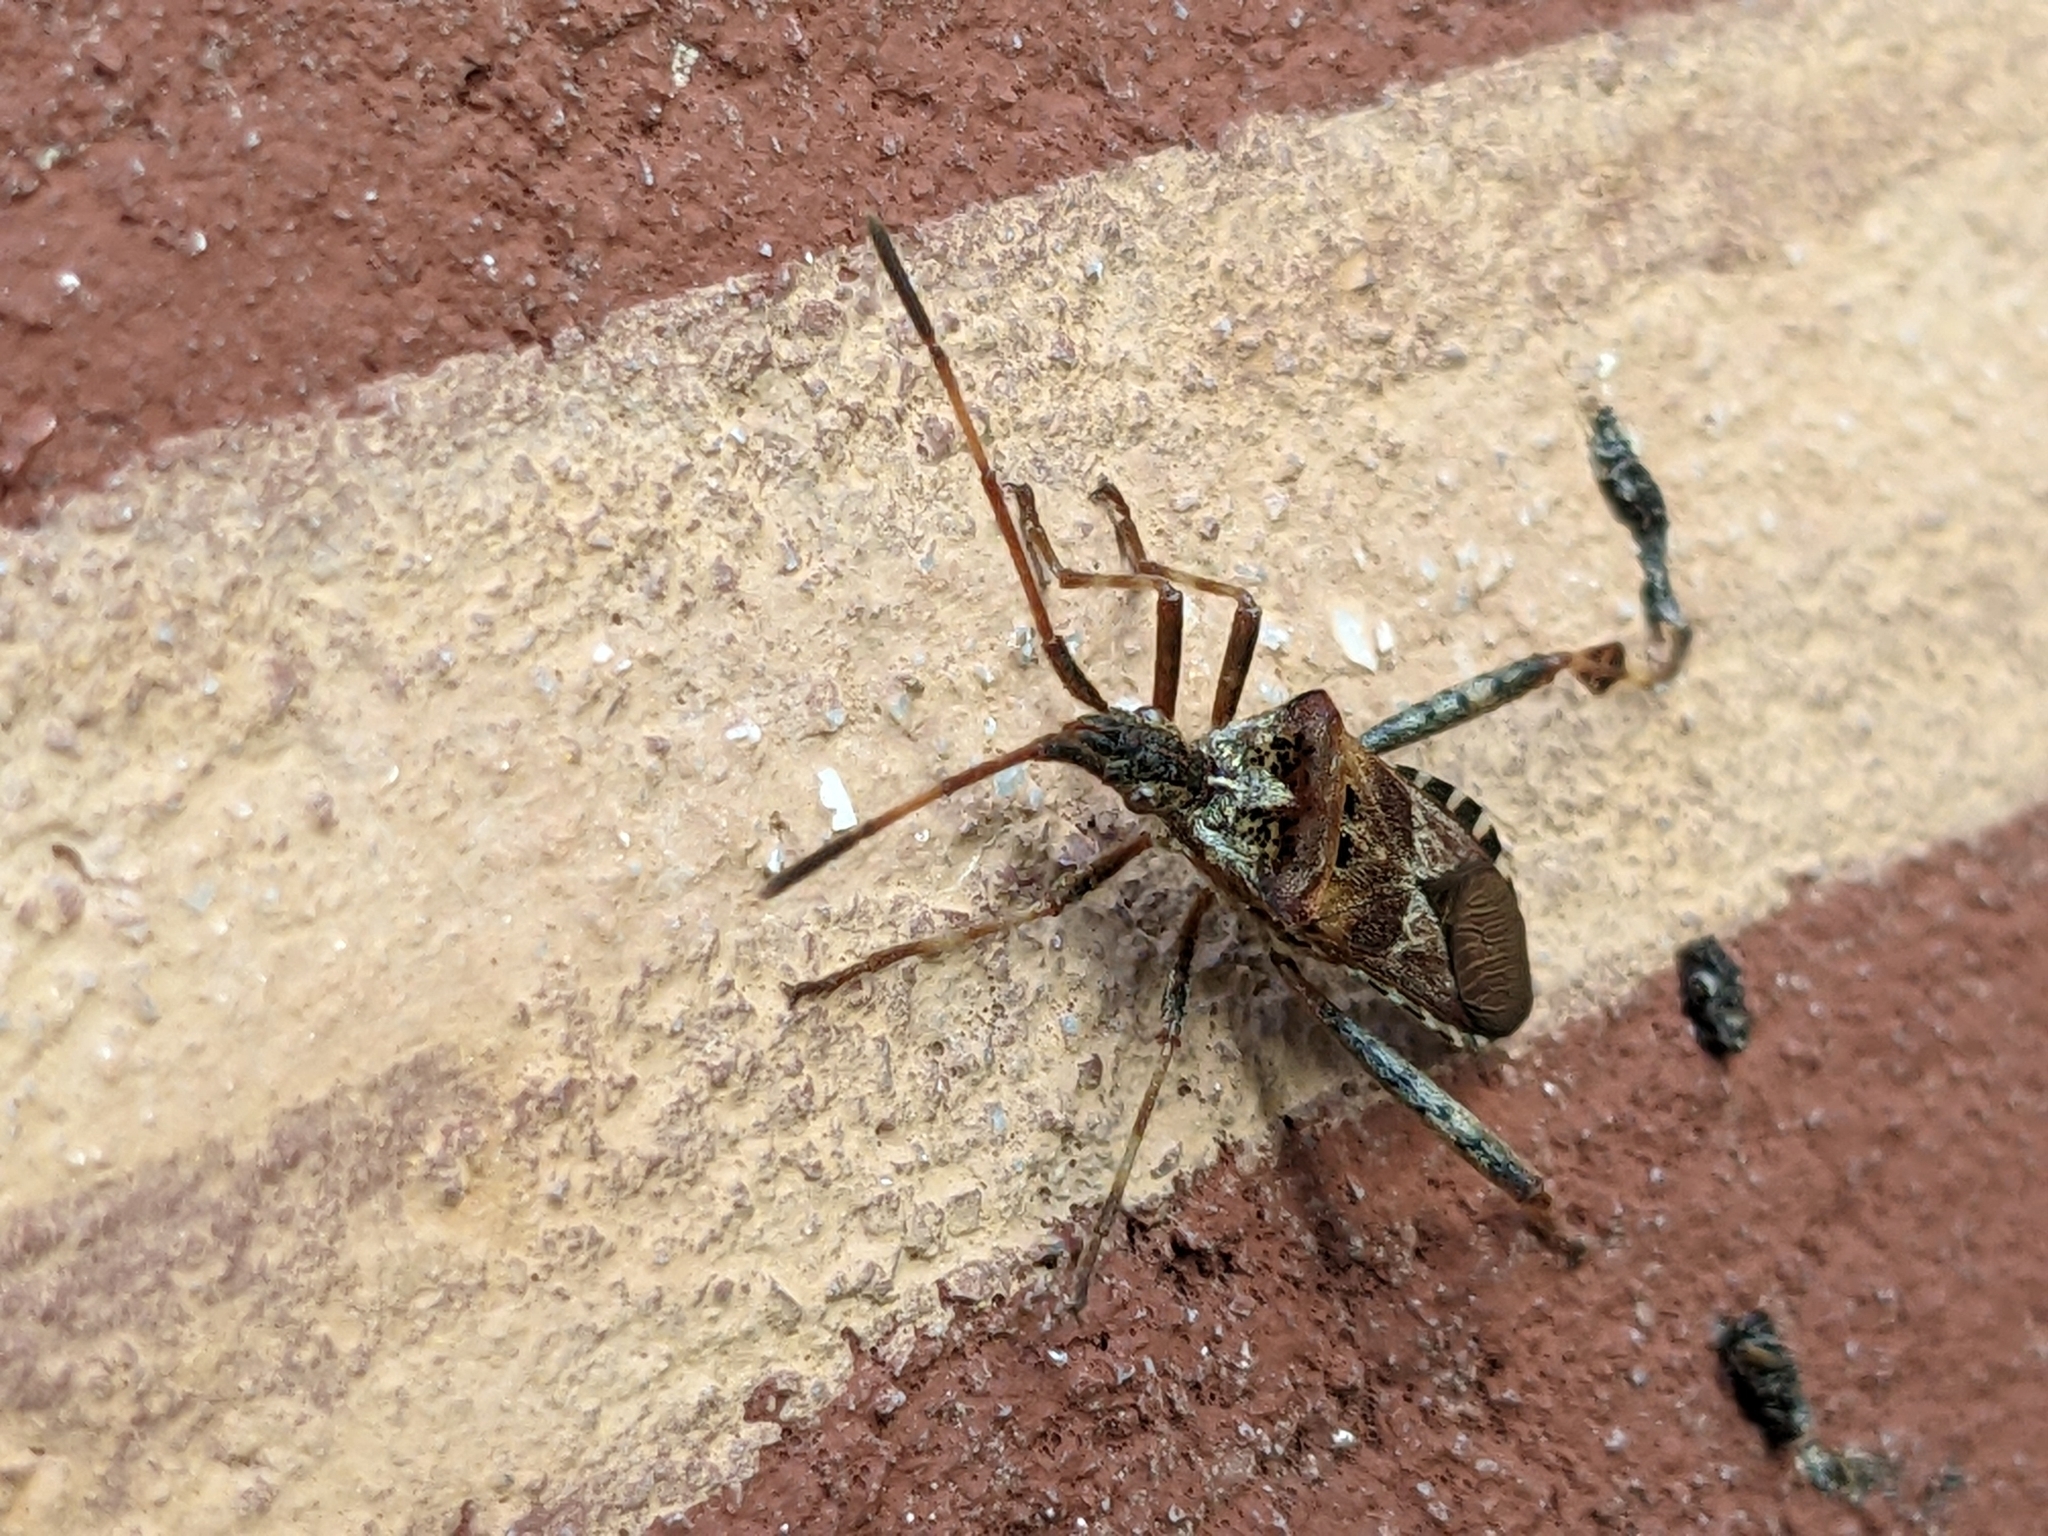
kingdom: Animalia
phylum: Arthropoda
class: Insecta
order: Hemiptera
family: Coreidae
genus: Leptoglossus
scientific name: Leptoglossus occidentalis
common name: Western conifer-seed bug
